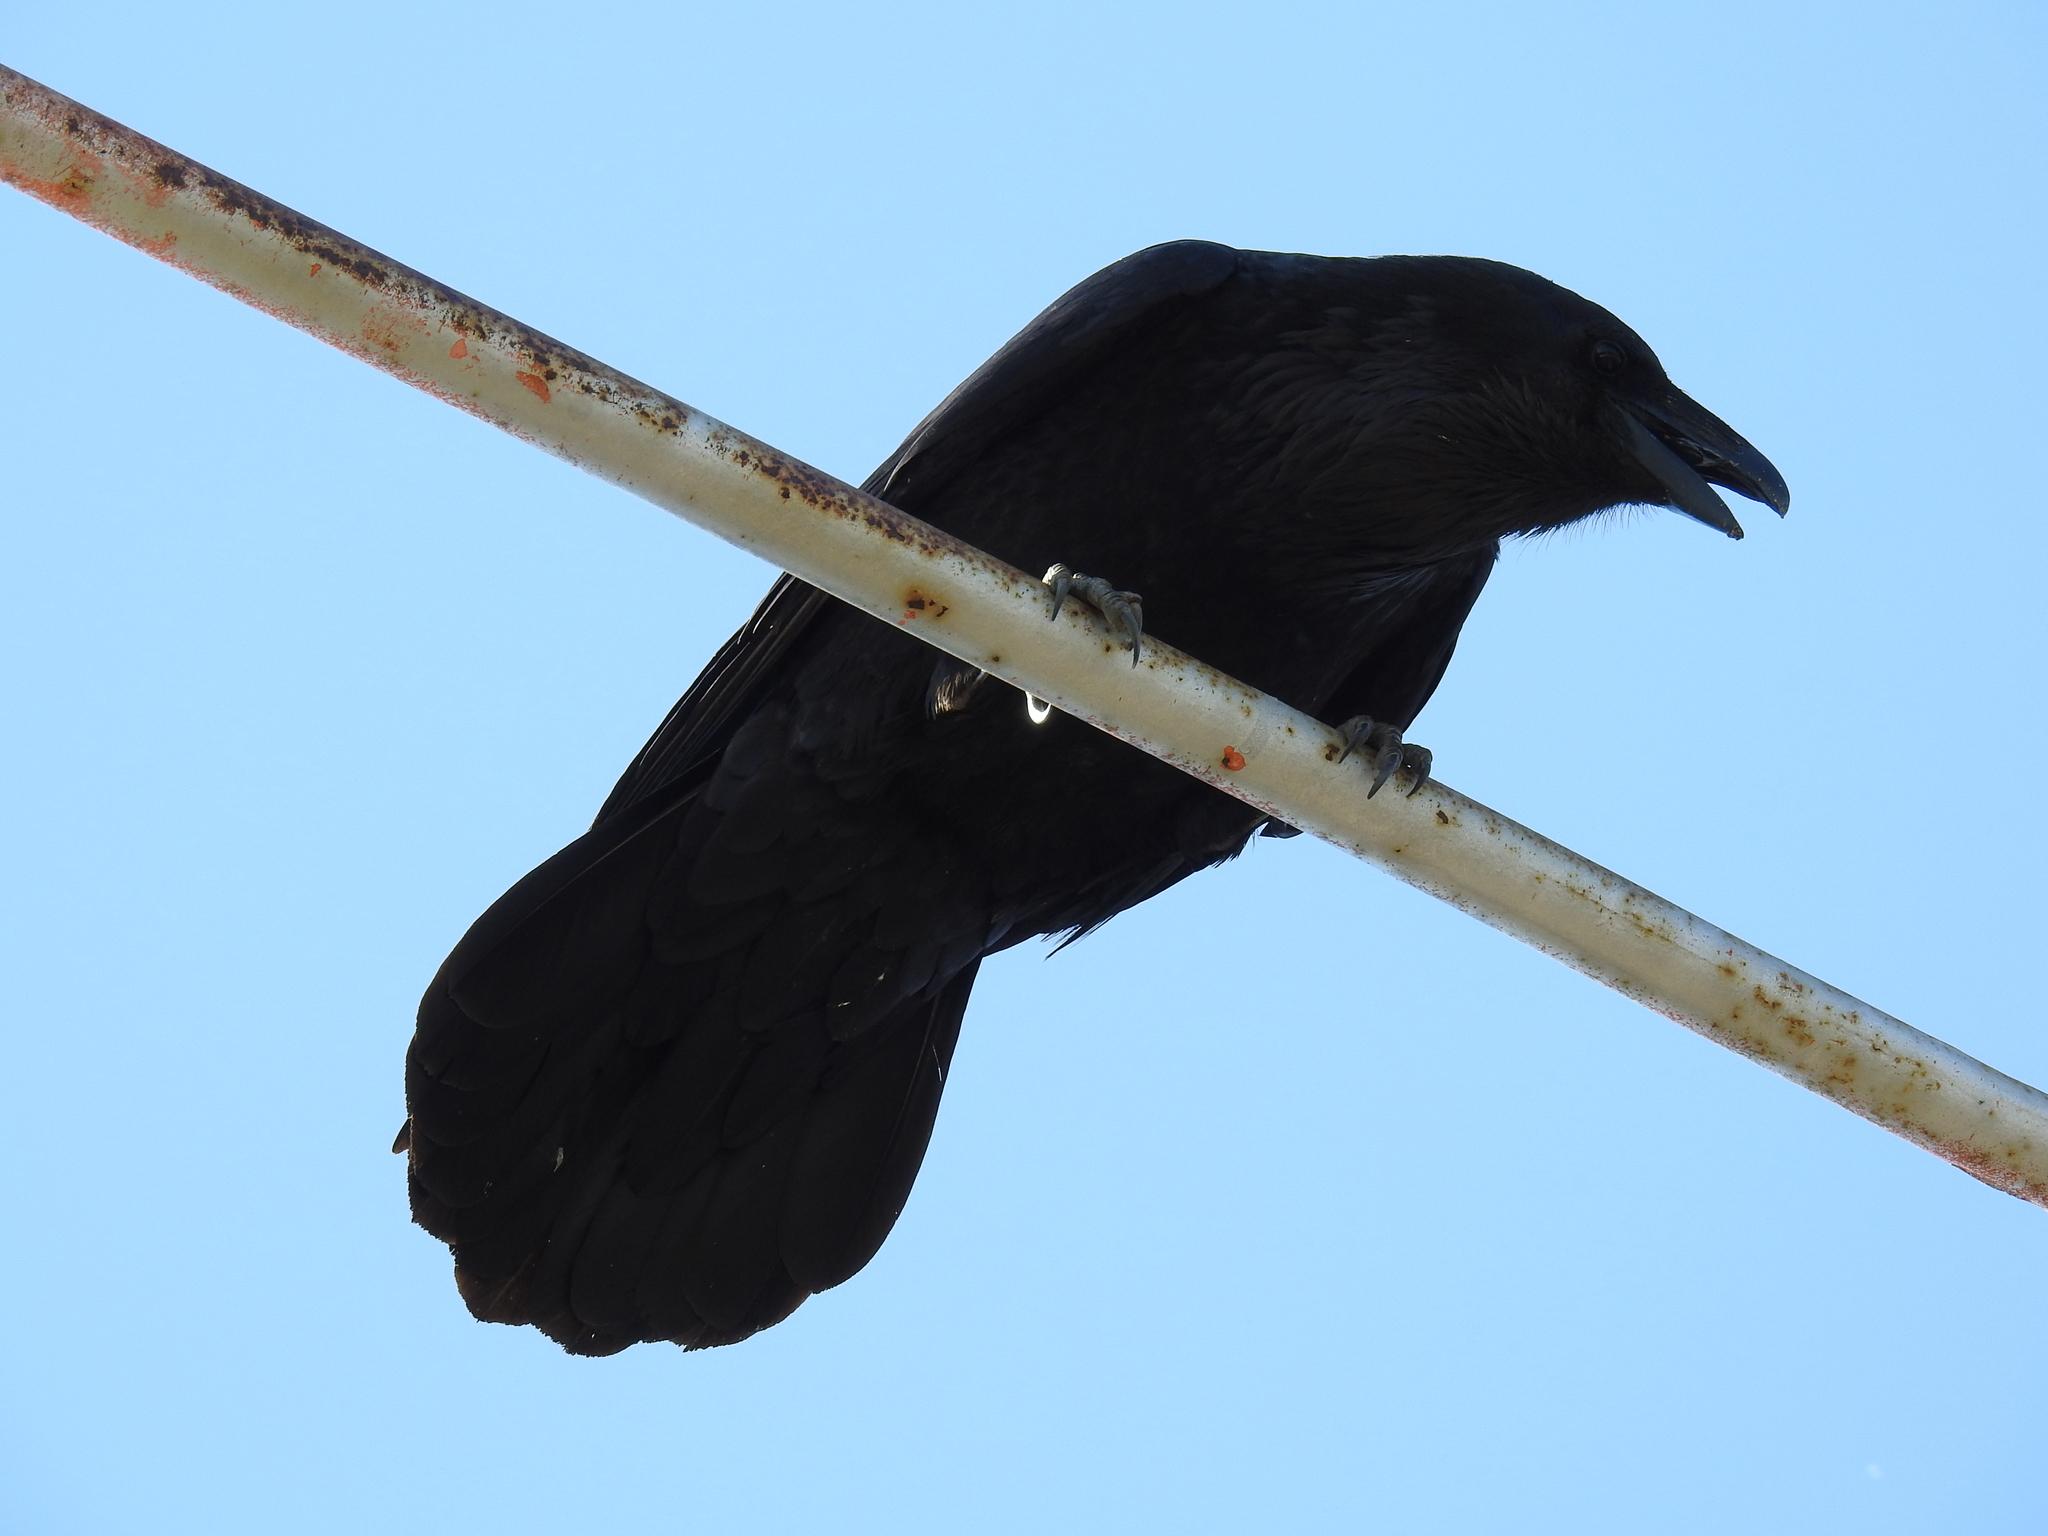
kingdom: Animalia
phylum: Chordata
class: Aves
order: Passeriformes
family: Corvidae
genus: Corvus
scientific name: Corvus corax
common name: Common raven
